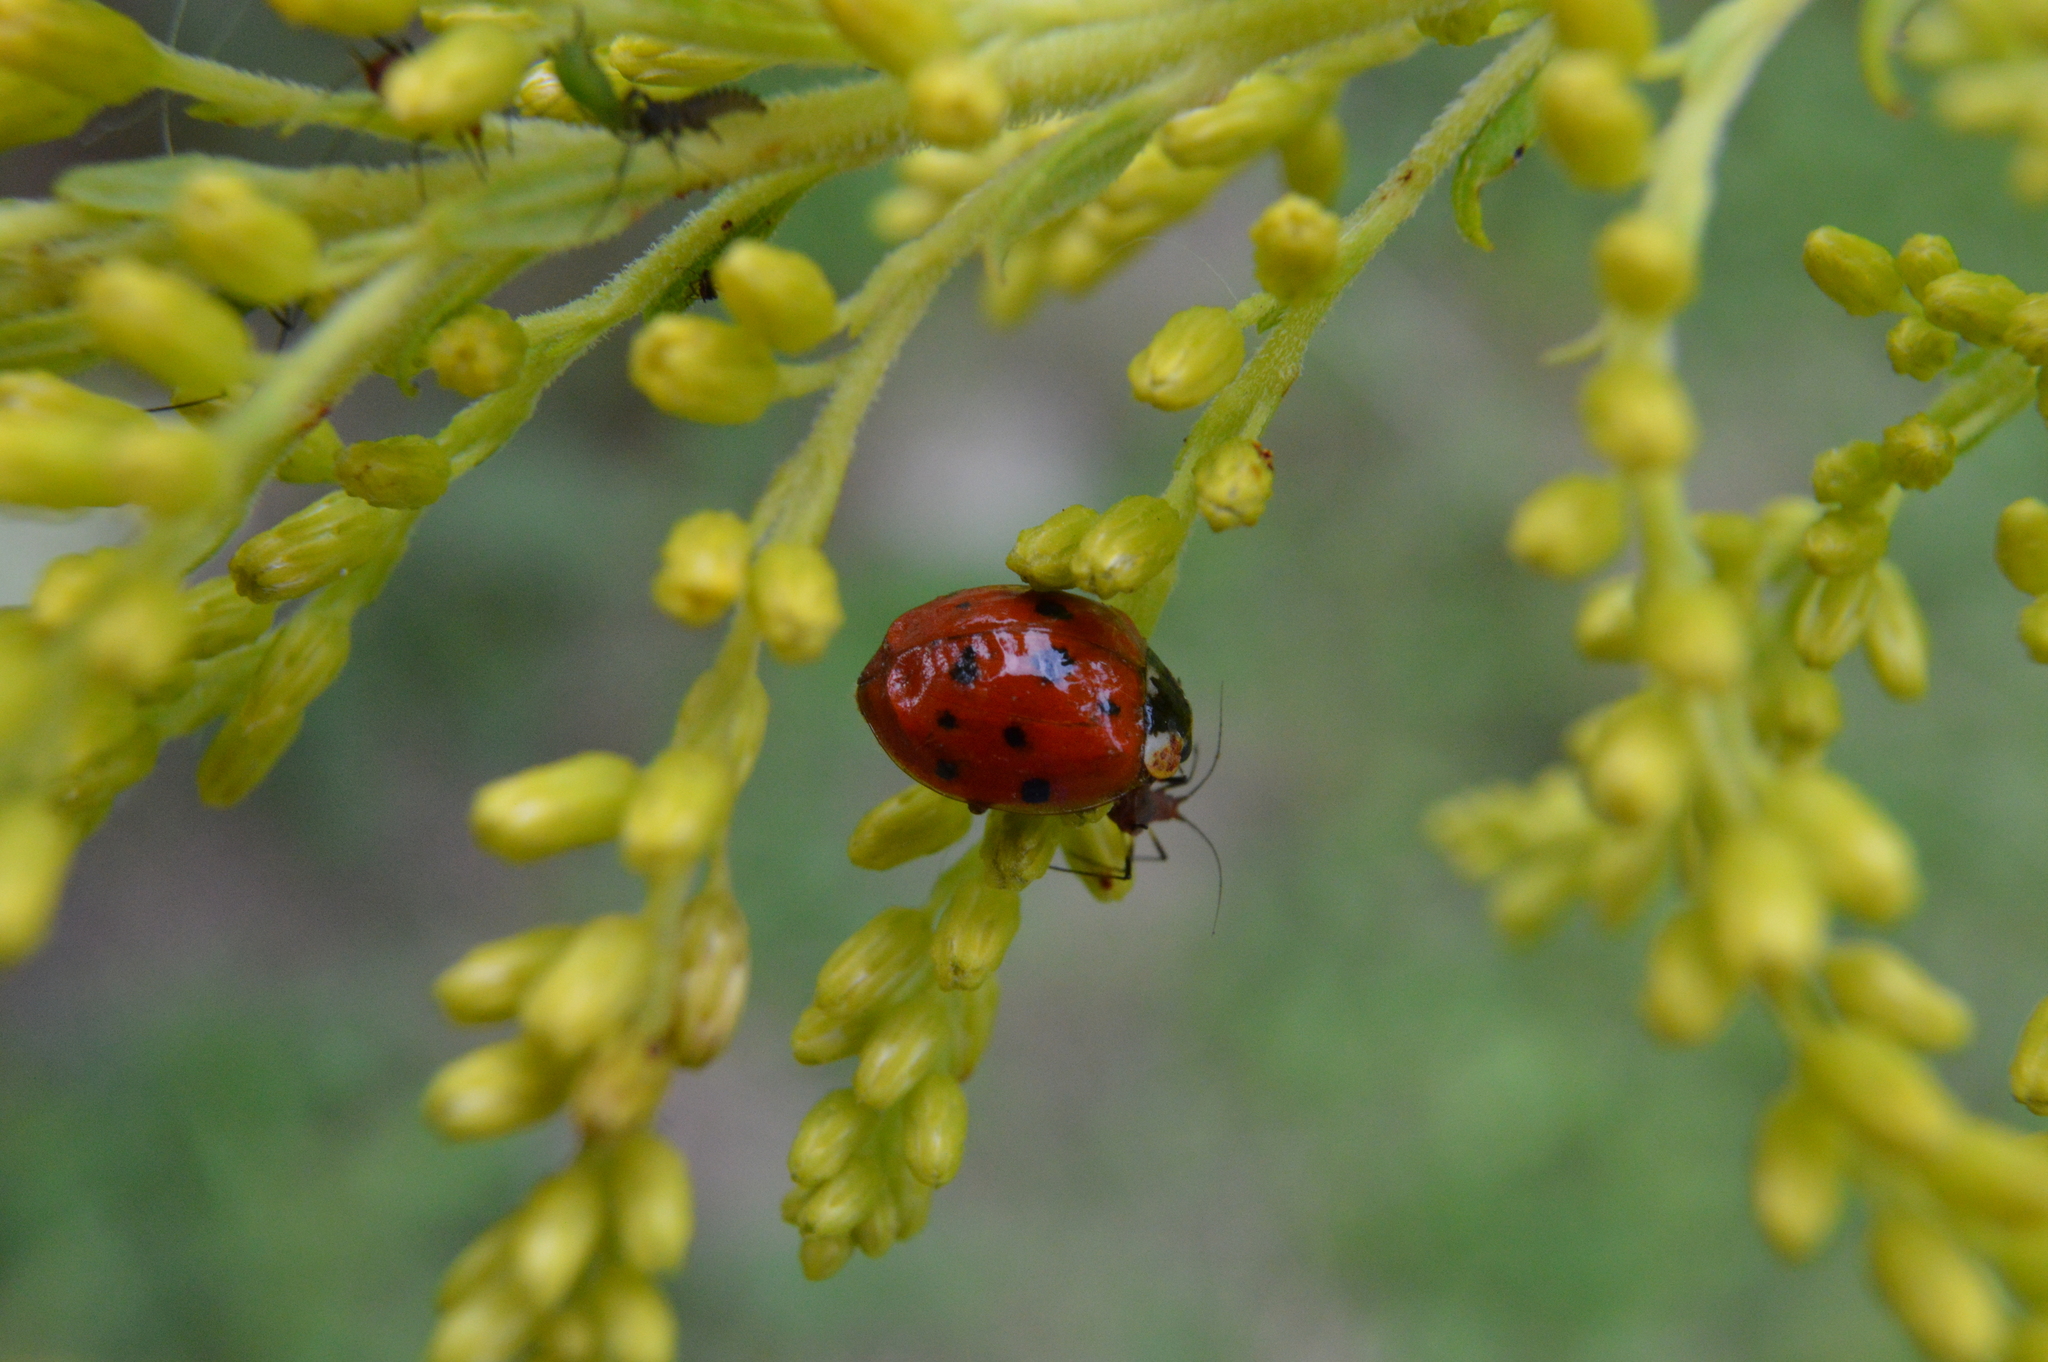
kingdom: Animalia
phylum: Arthropoda
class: Insecta
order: Coleoptera
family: Coccinellidae
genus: Harmonia
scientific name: Harmonia axyridis
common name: Harlequin ladybird
